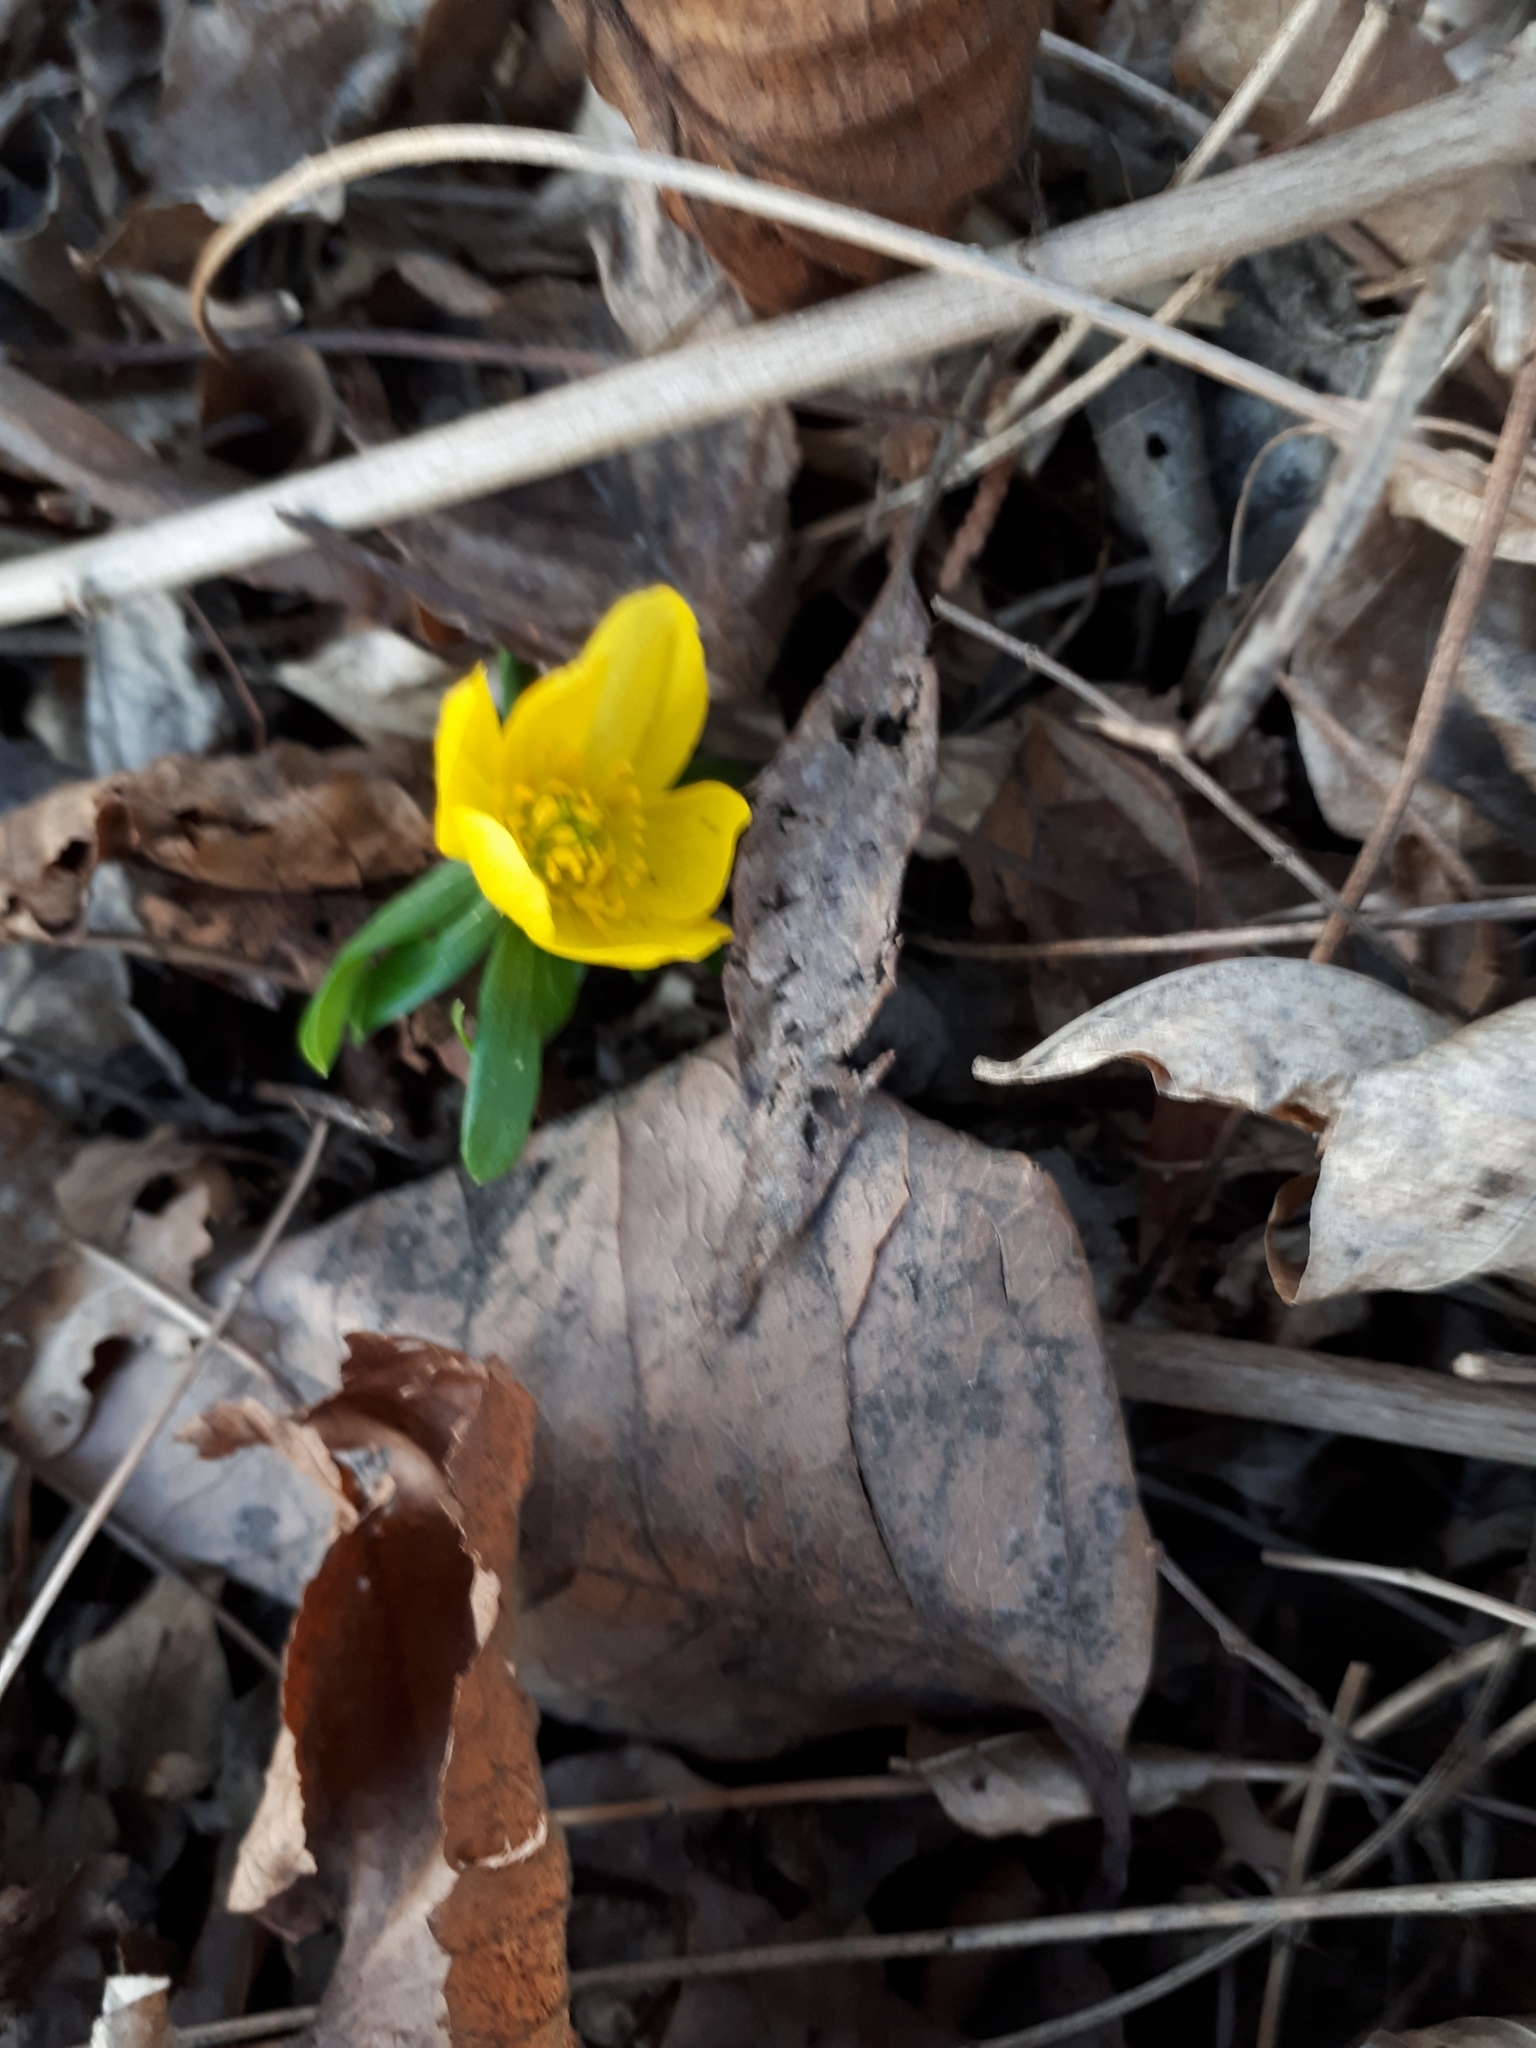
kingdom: Plantae
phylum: Tracheophyta
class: Magnoliopsida
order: Ranunculales
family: Ranunculaceae
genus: Eranthis
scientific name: Eranthis hyemalis
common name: Winter aconite
